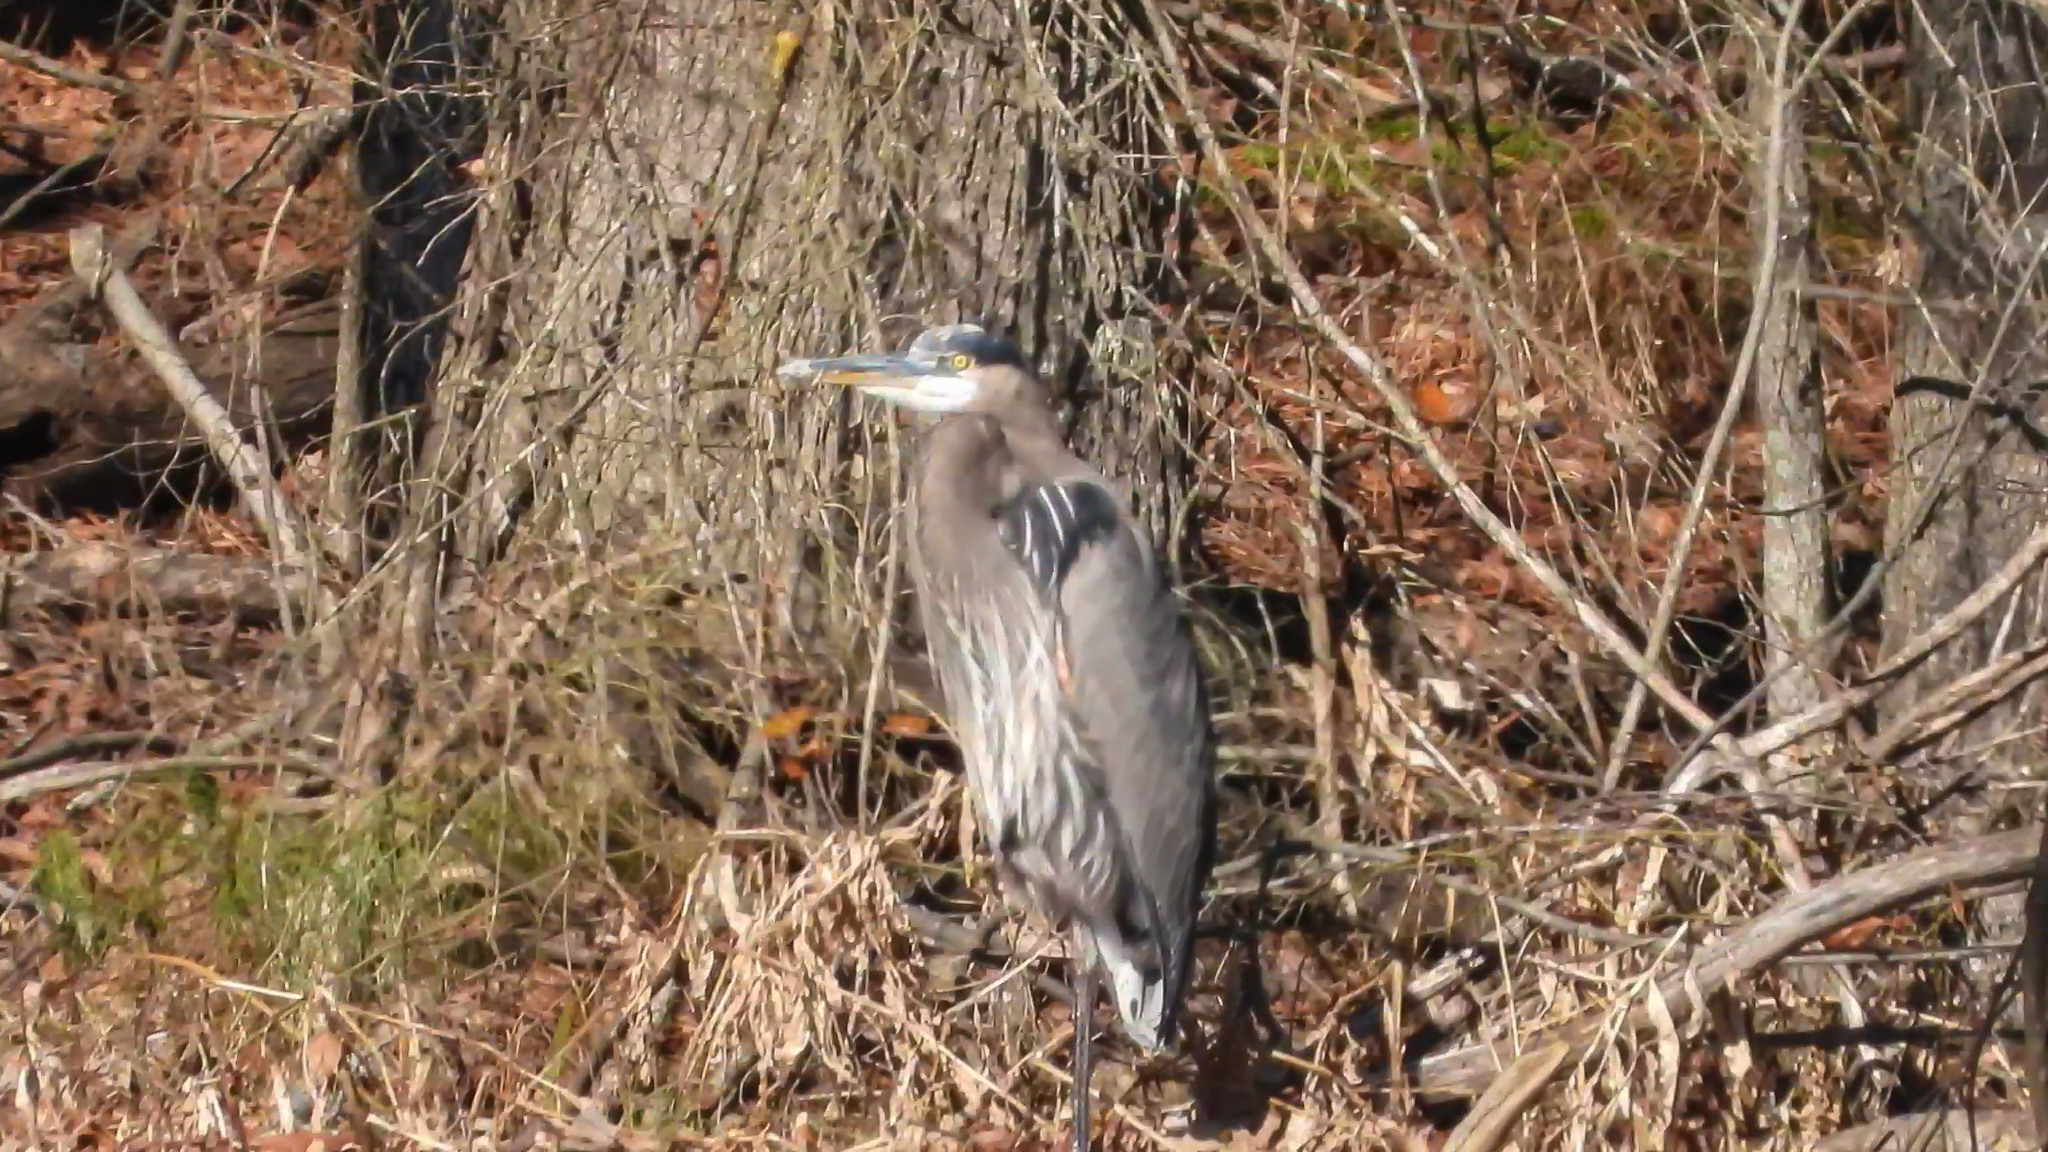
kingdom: Animalia
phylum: Chordata
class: Aves
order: Pelecaniformes
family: Ardeidae
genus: Ardea
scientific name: Ardea herodias
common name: Great blue heron
